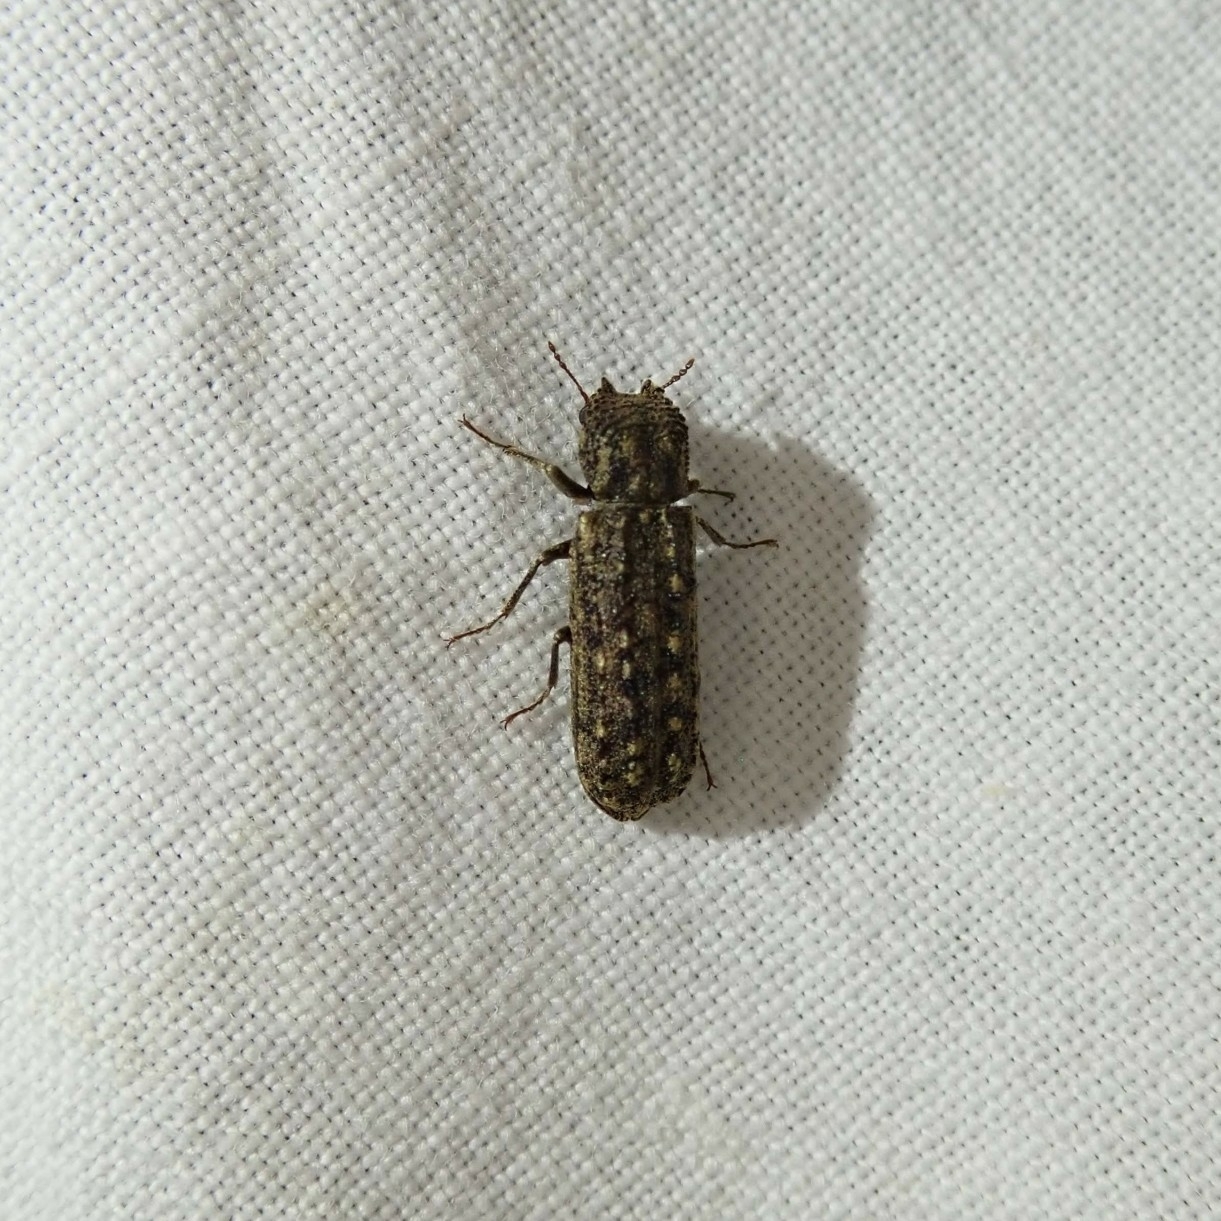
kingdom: Animalia
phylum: Arthropoda
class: Insecta
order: Coleoptera
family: Bostrichidae
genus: Lichenophanes
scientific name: Lichenophanes bicornis
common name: Two-horned powder-post beetle
